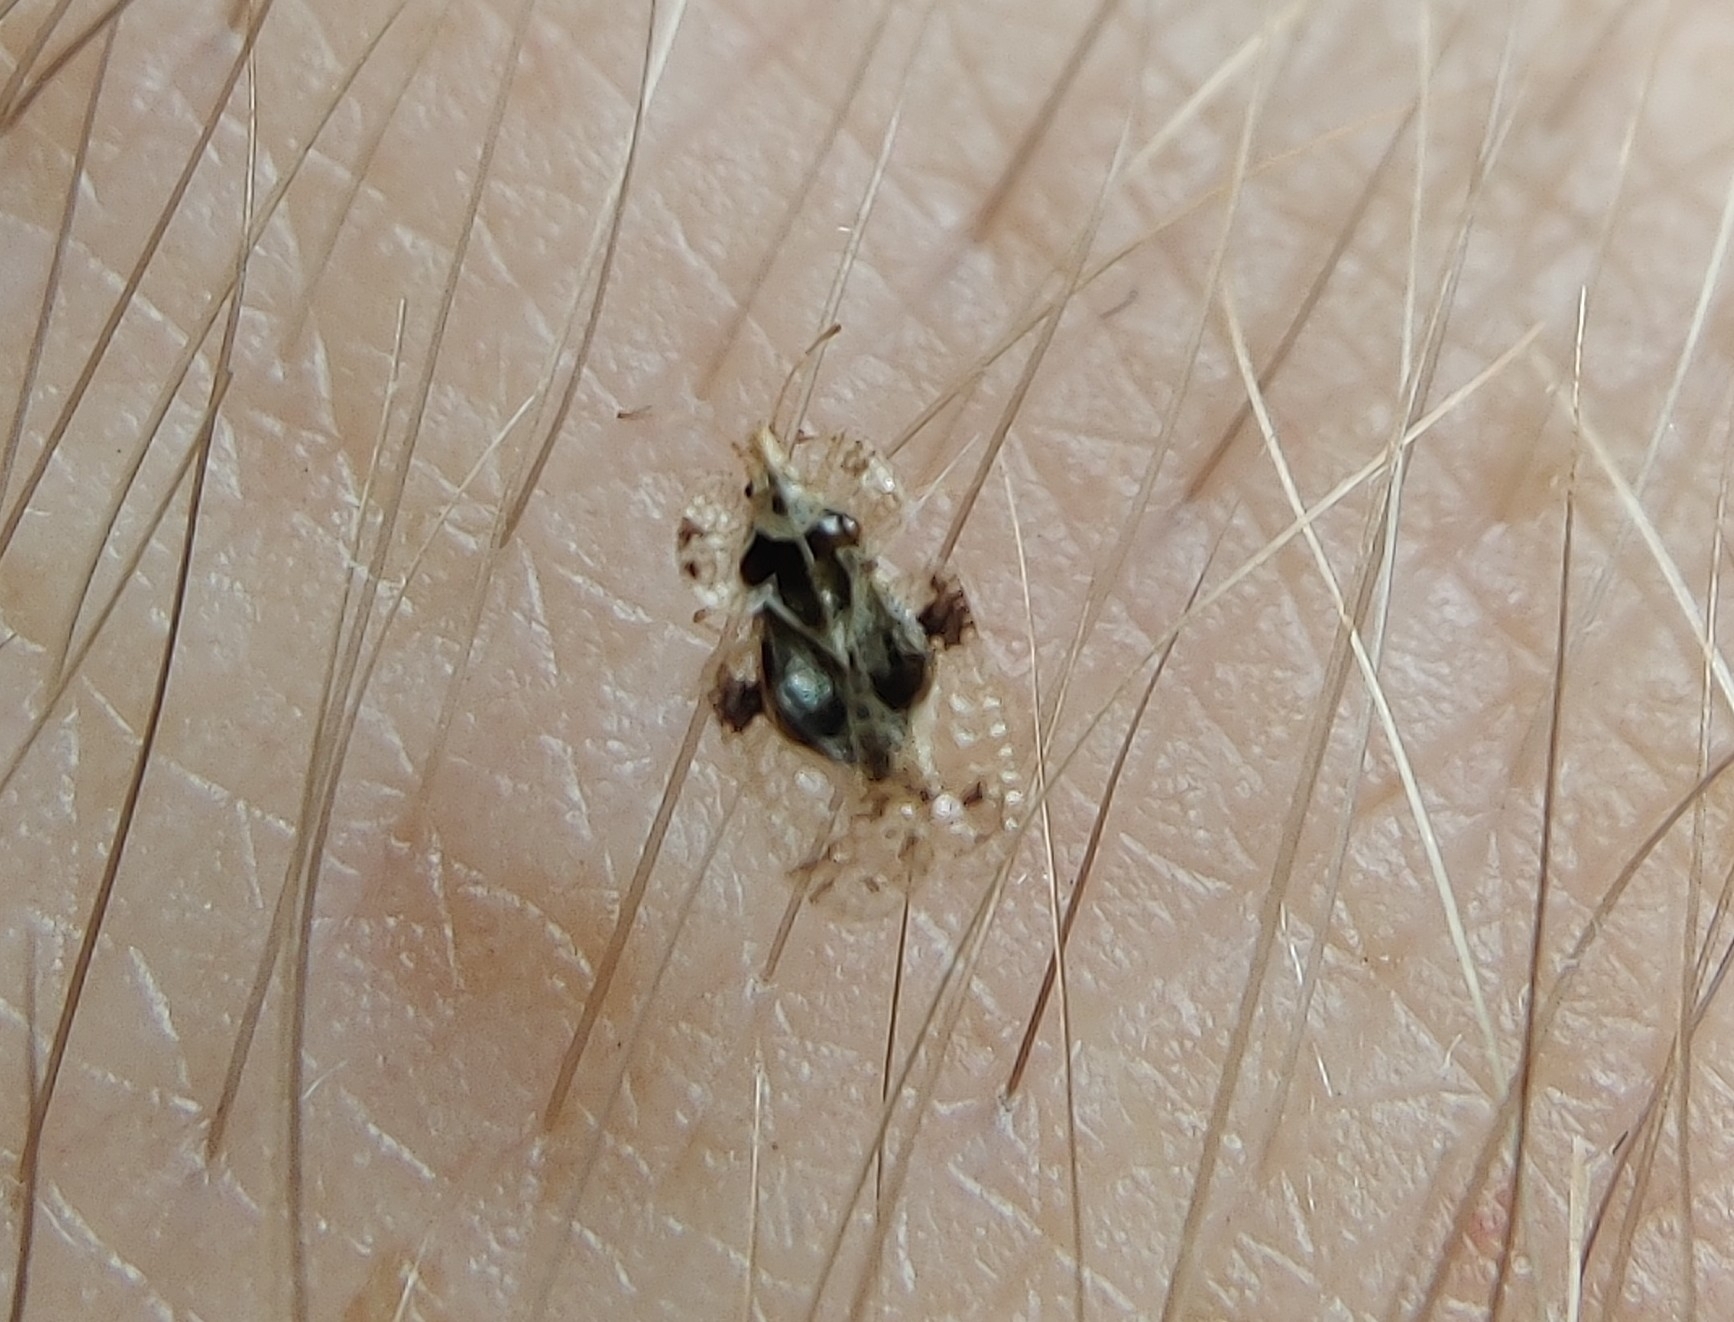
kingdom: Animalia
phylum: Arthropoda
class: Insecta
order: Hemiptera
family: Tingidae
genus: Corythucha
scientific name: Corythucha arcuata
